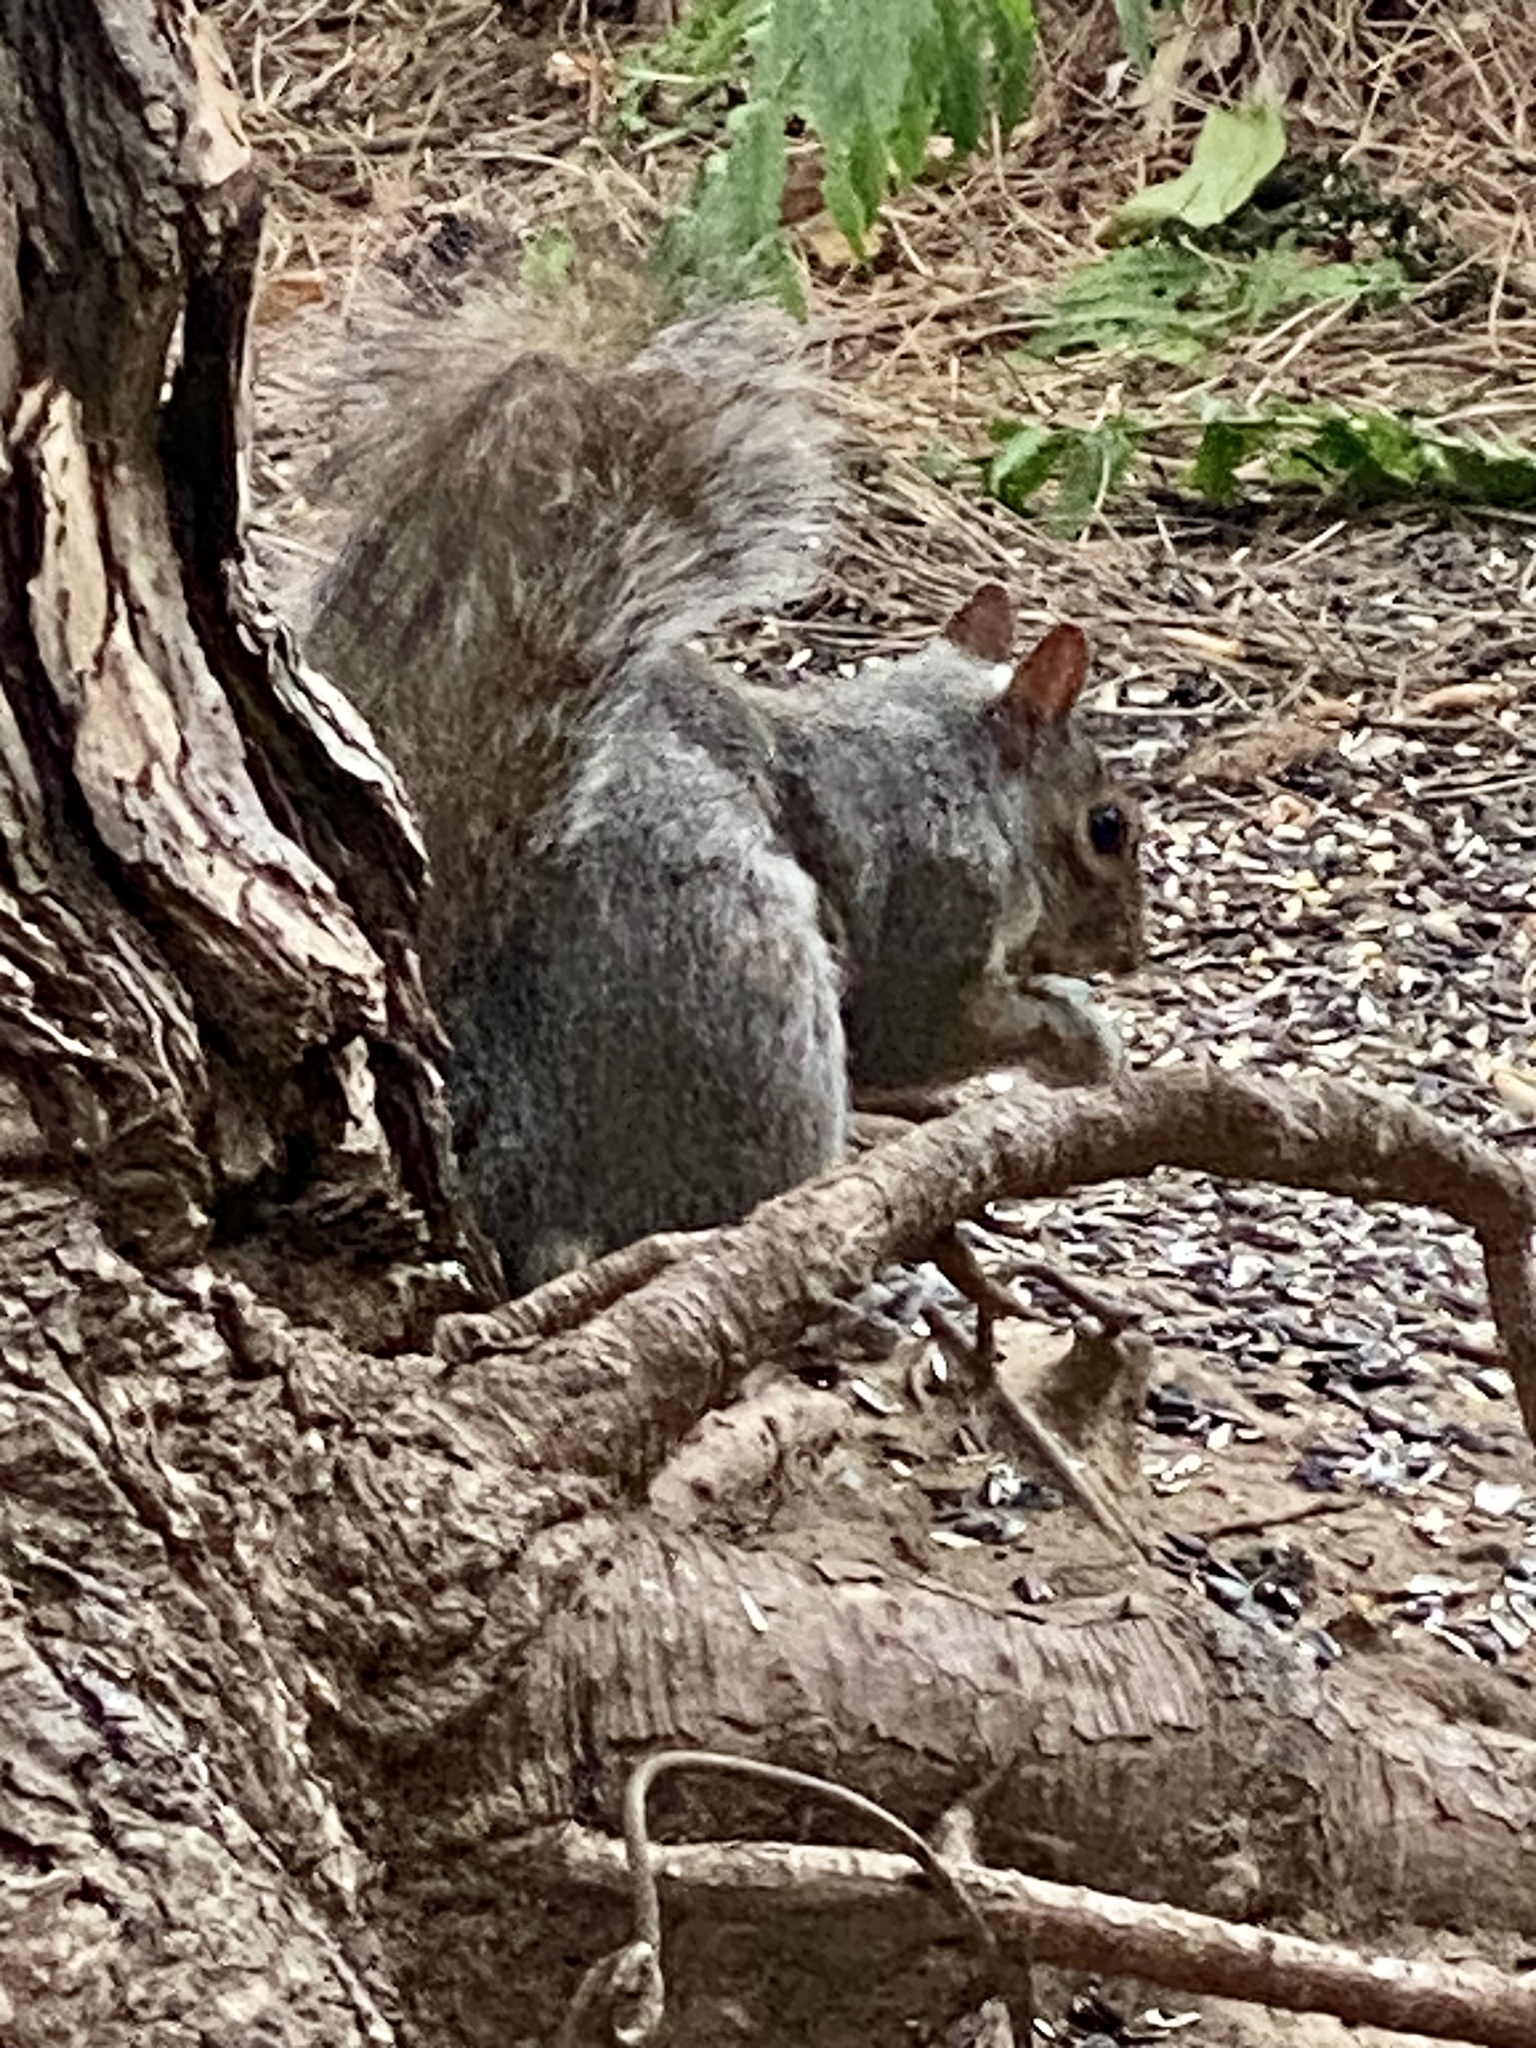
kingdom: Animalia
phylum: Chordata
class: Mammalia
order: Rodentia
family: Sciuridae
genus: Sciurus
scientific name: Sciurus carolinensis
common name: Eastern gray squirrel
